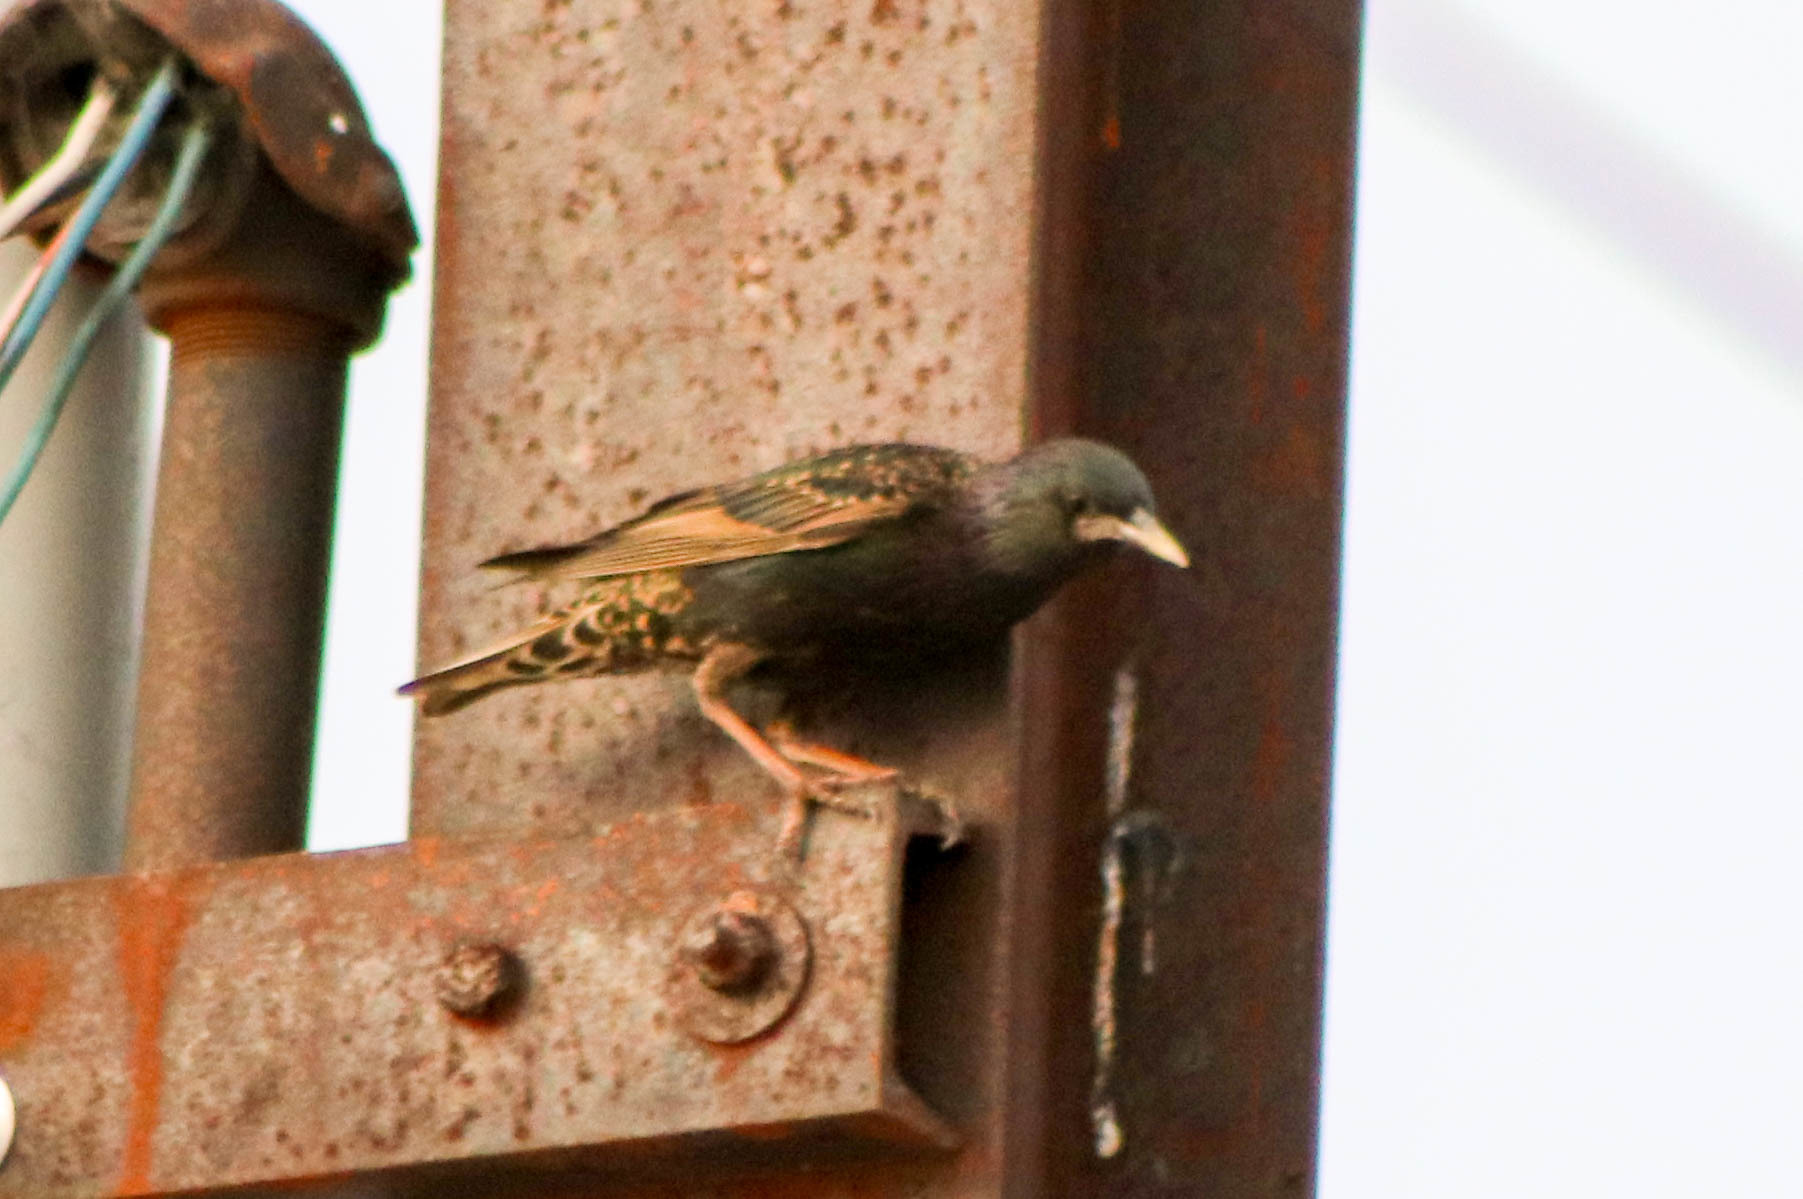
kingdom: Animalia
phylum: Chordata
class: Aves
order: Passeriformes
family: Sturnidae
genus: Sturnus
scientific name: Sturnus vulgaris
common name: Common starling
